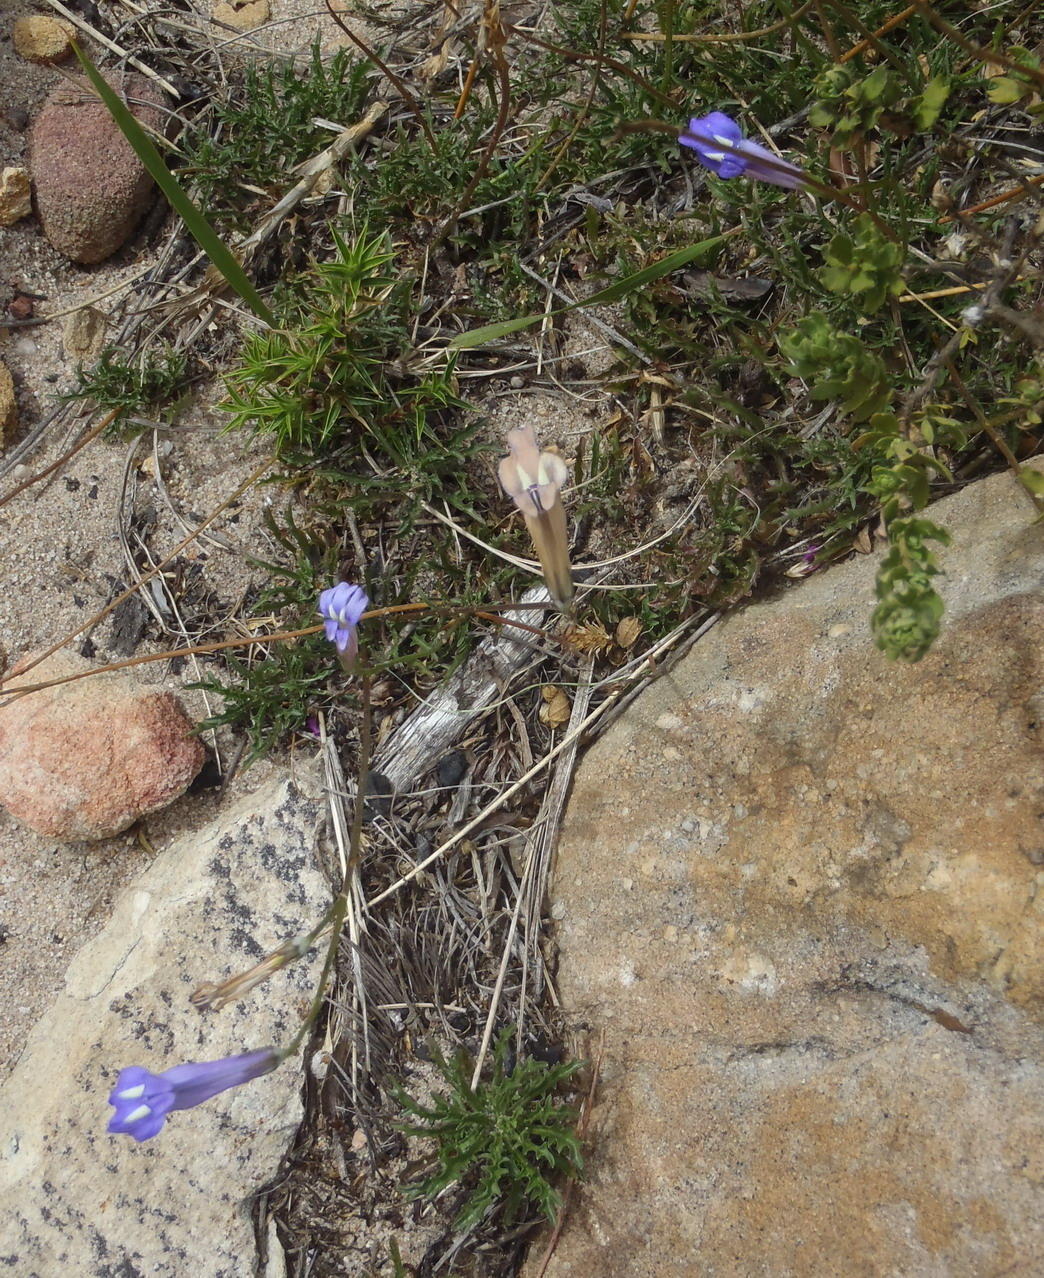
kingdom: Plantae
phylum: Tracheophyta
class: Magnoliopsida
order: Asterales
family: Campanulaceae
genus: Lobelia
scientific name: Lobelia coronopifolia
